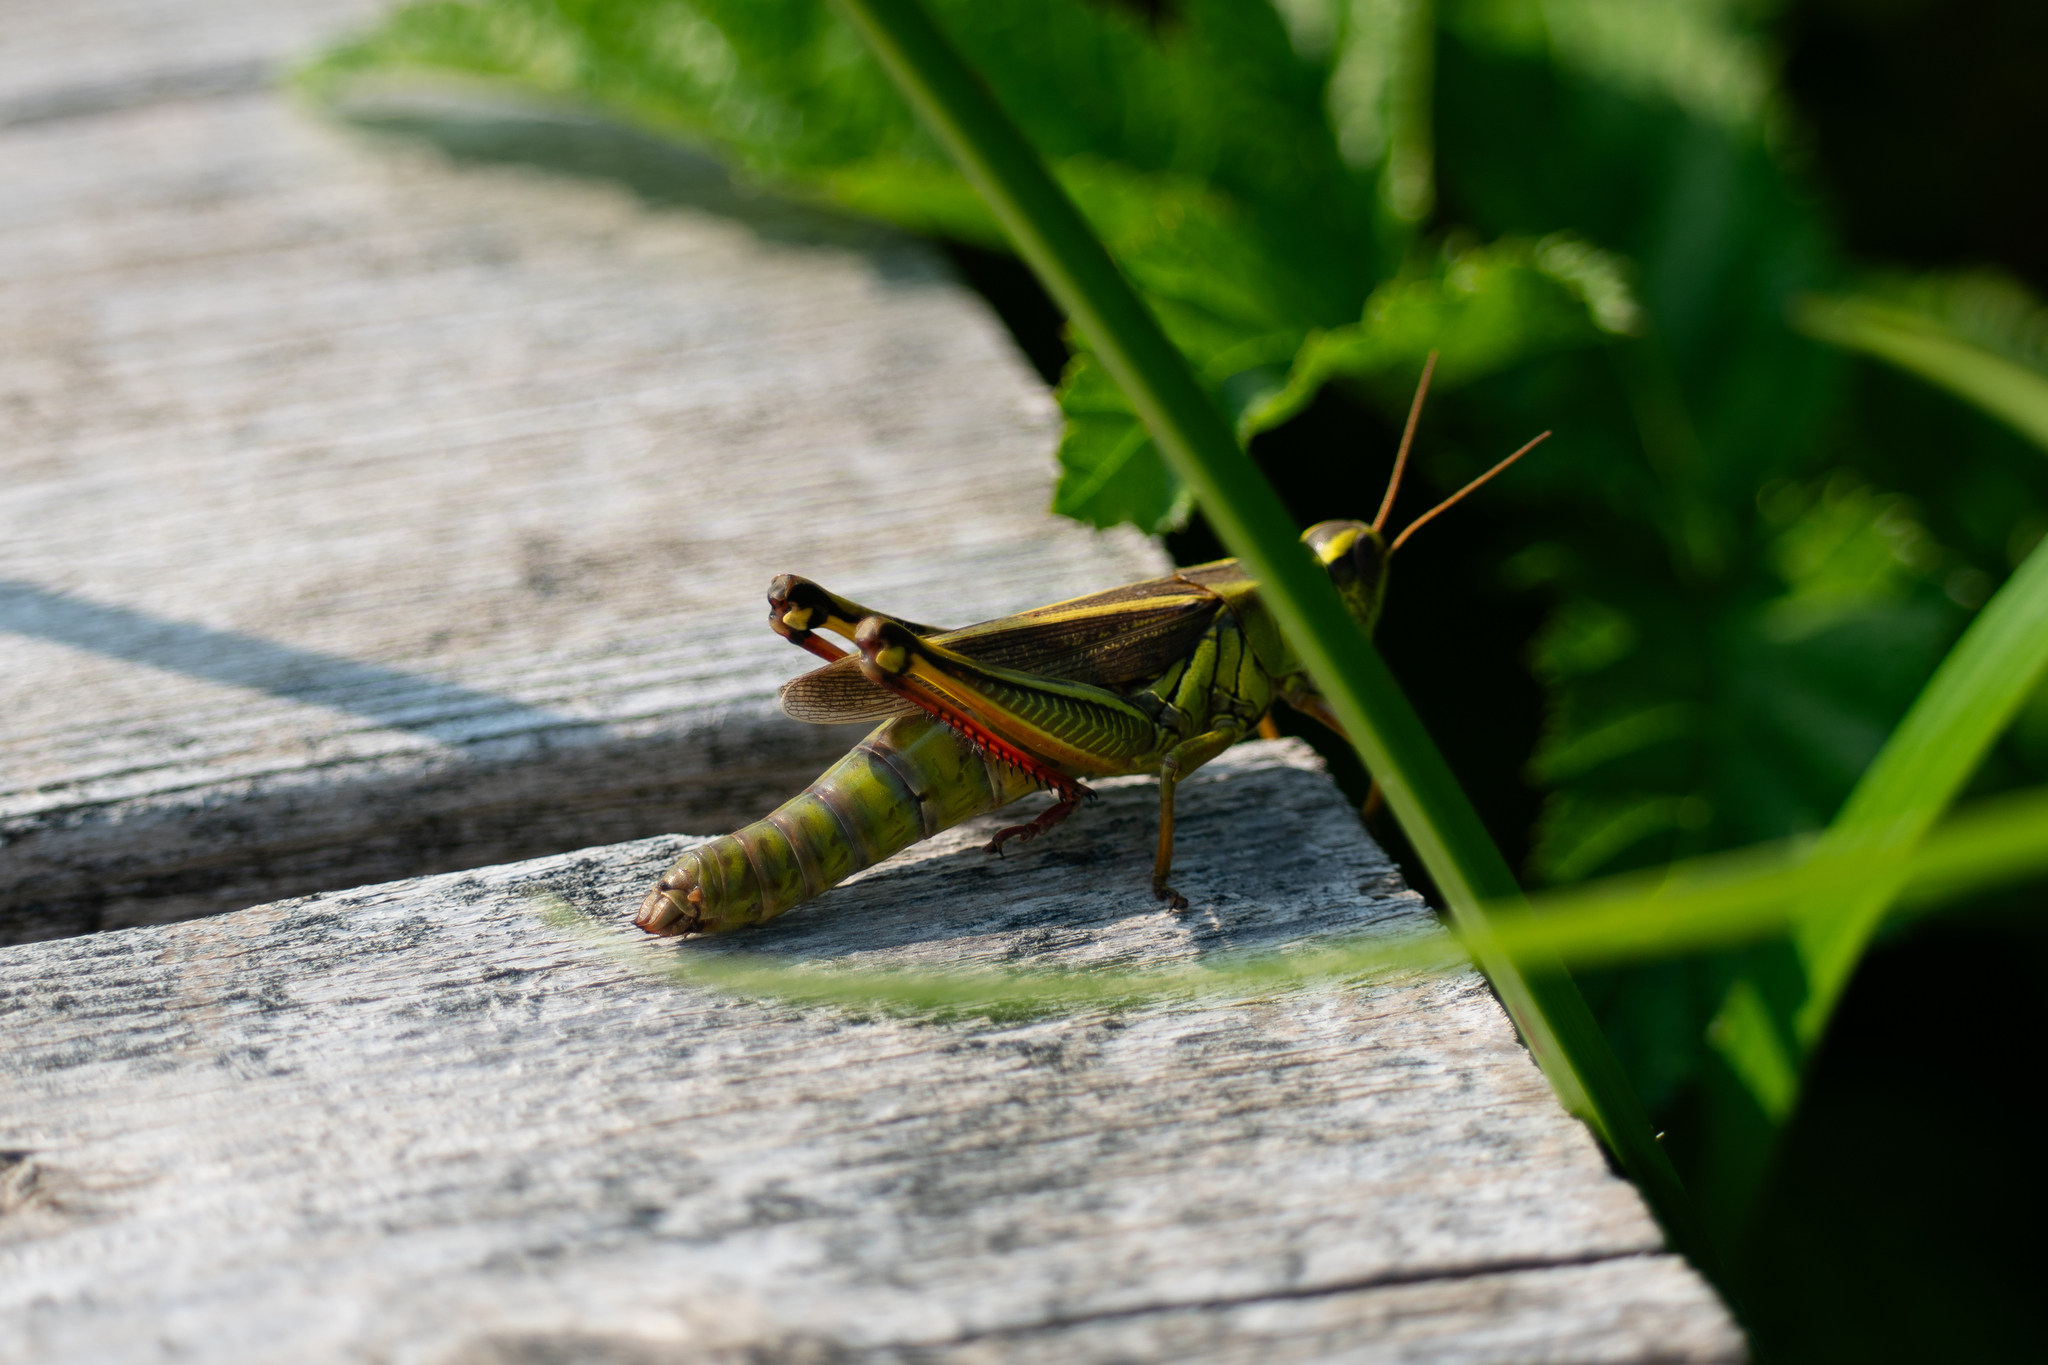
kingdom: Animalia
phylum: Arthropoda
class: Insecta
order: Orthoptera
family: Acrididae
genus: Melanoplus
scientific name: Melanoplus bivittatus
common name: Two-striped grasshopper
